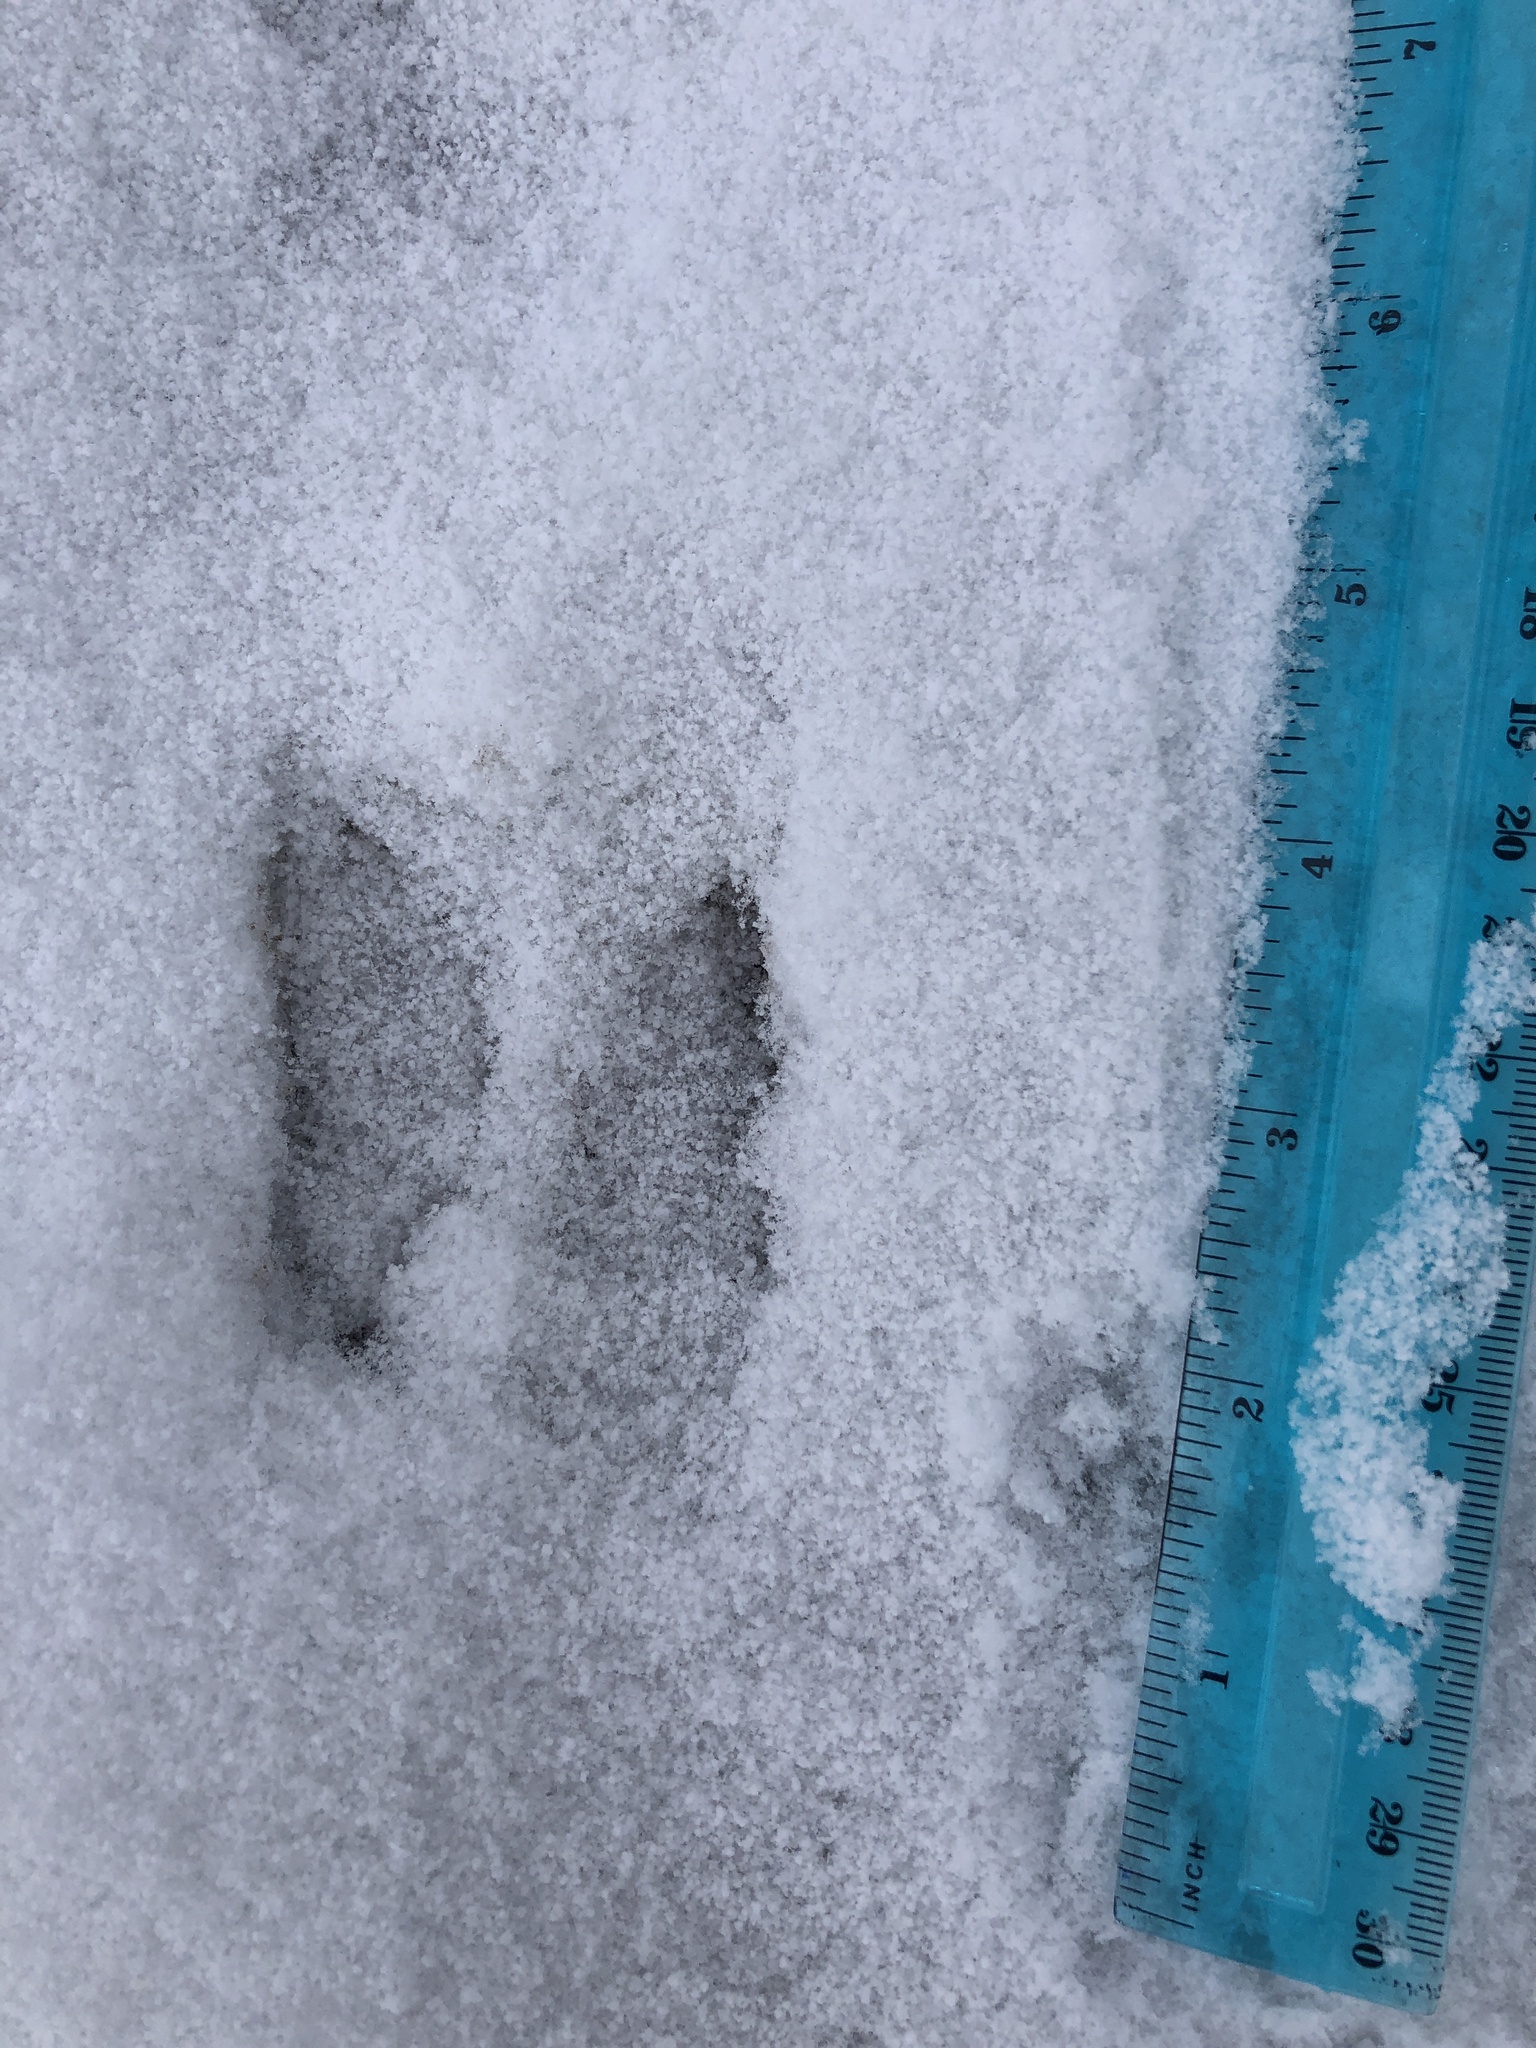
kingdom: Animalia
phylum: Chordata
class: Mammalia
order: Artiodactyla
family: Cervidae
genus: Odocoileus
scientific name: Odocoileus virginianus
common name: White-tailed deer
